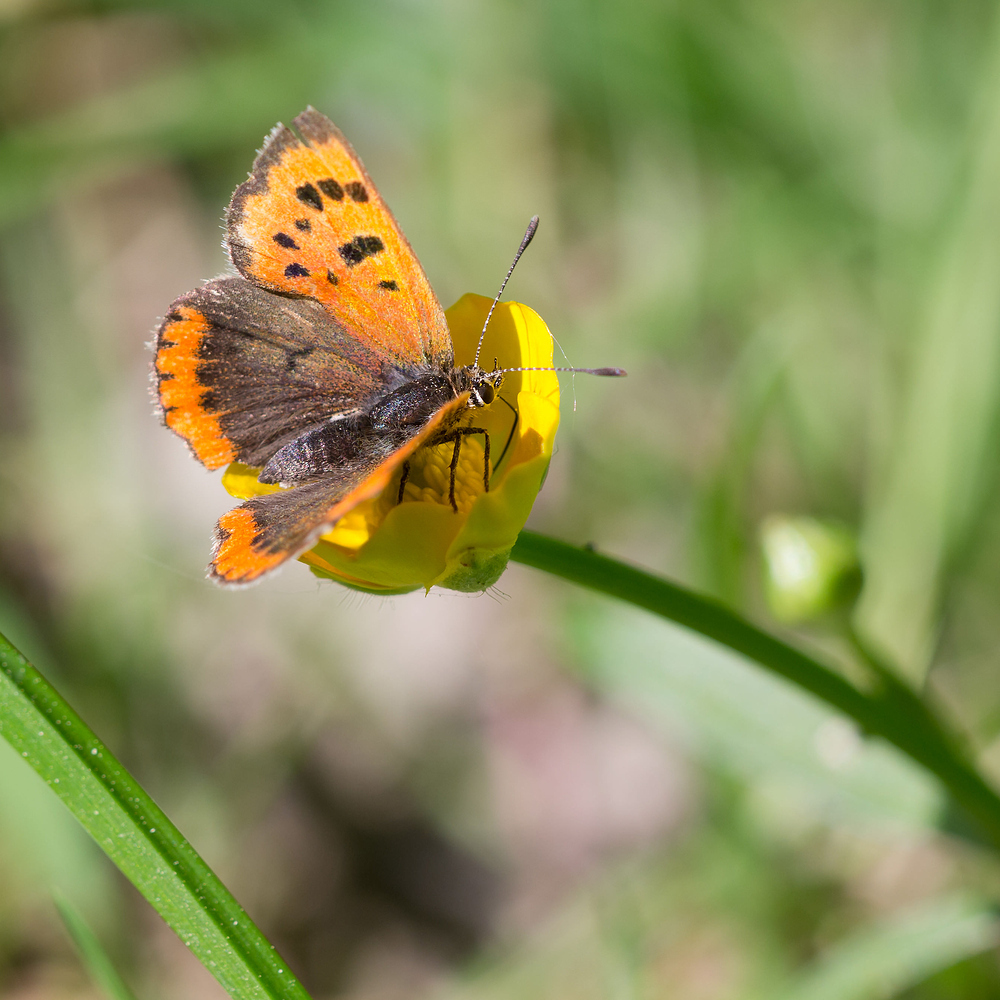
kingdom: Animalia
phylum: Arthropoda
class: Insecta
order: Lepidoptera
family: Lycaenidae
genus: Lycaena
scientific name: Lycaena phlaeas
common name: Small copper
